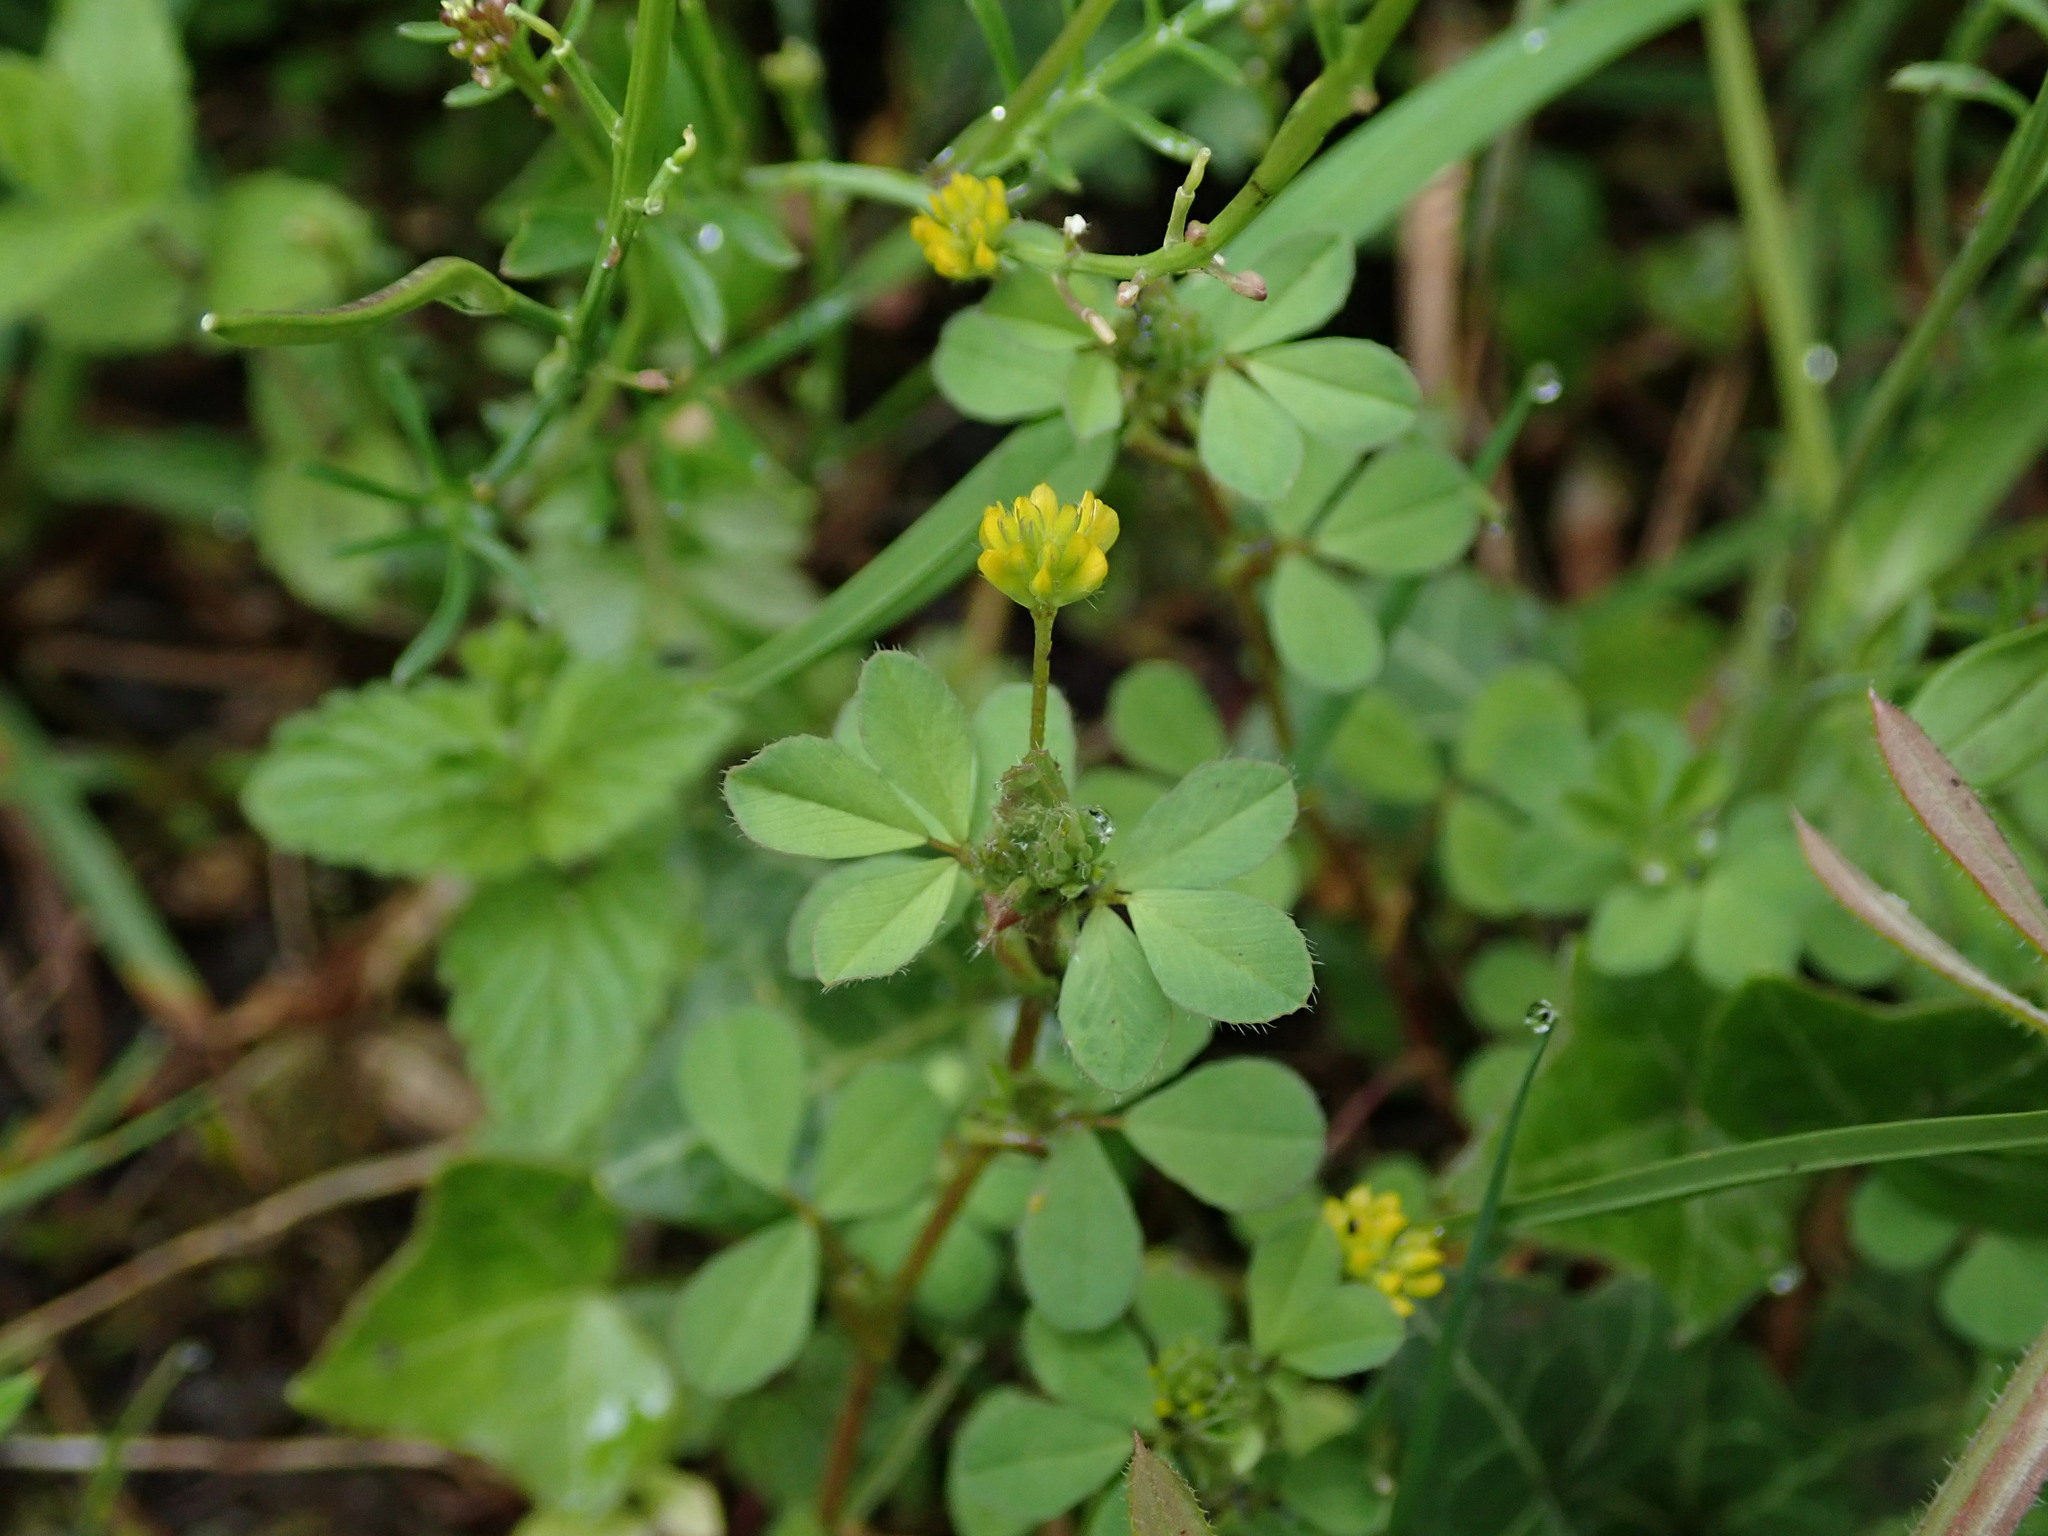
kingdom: Plantae
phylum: Tracheophyta
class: Magnoliopsida
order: Fabales
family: Fabaceae
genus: Trifolium
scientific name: Trifolium dubium
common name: Suckling clover
